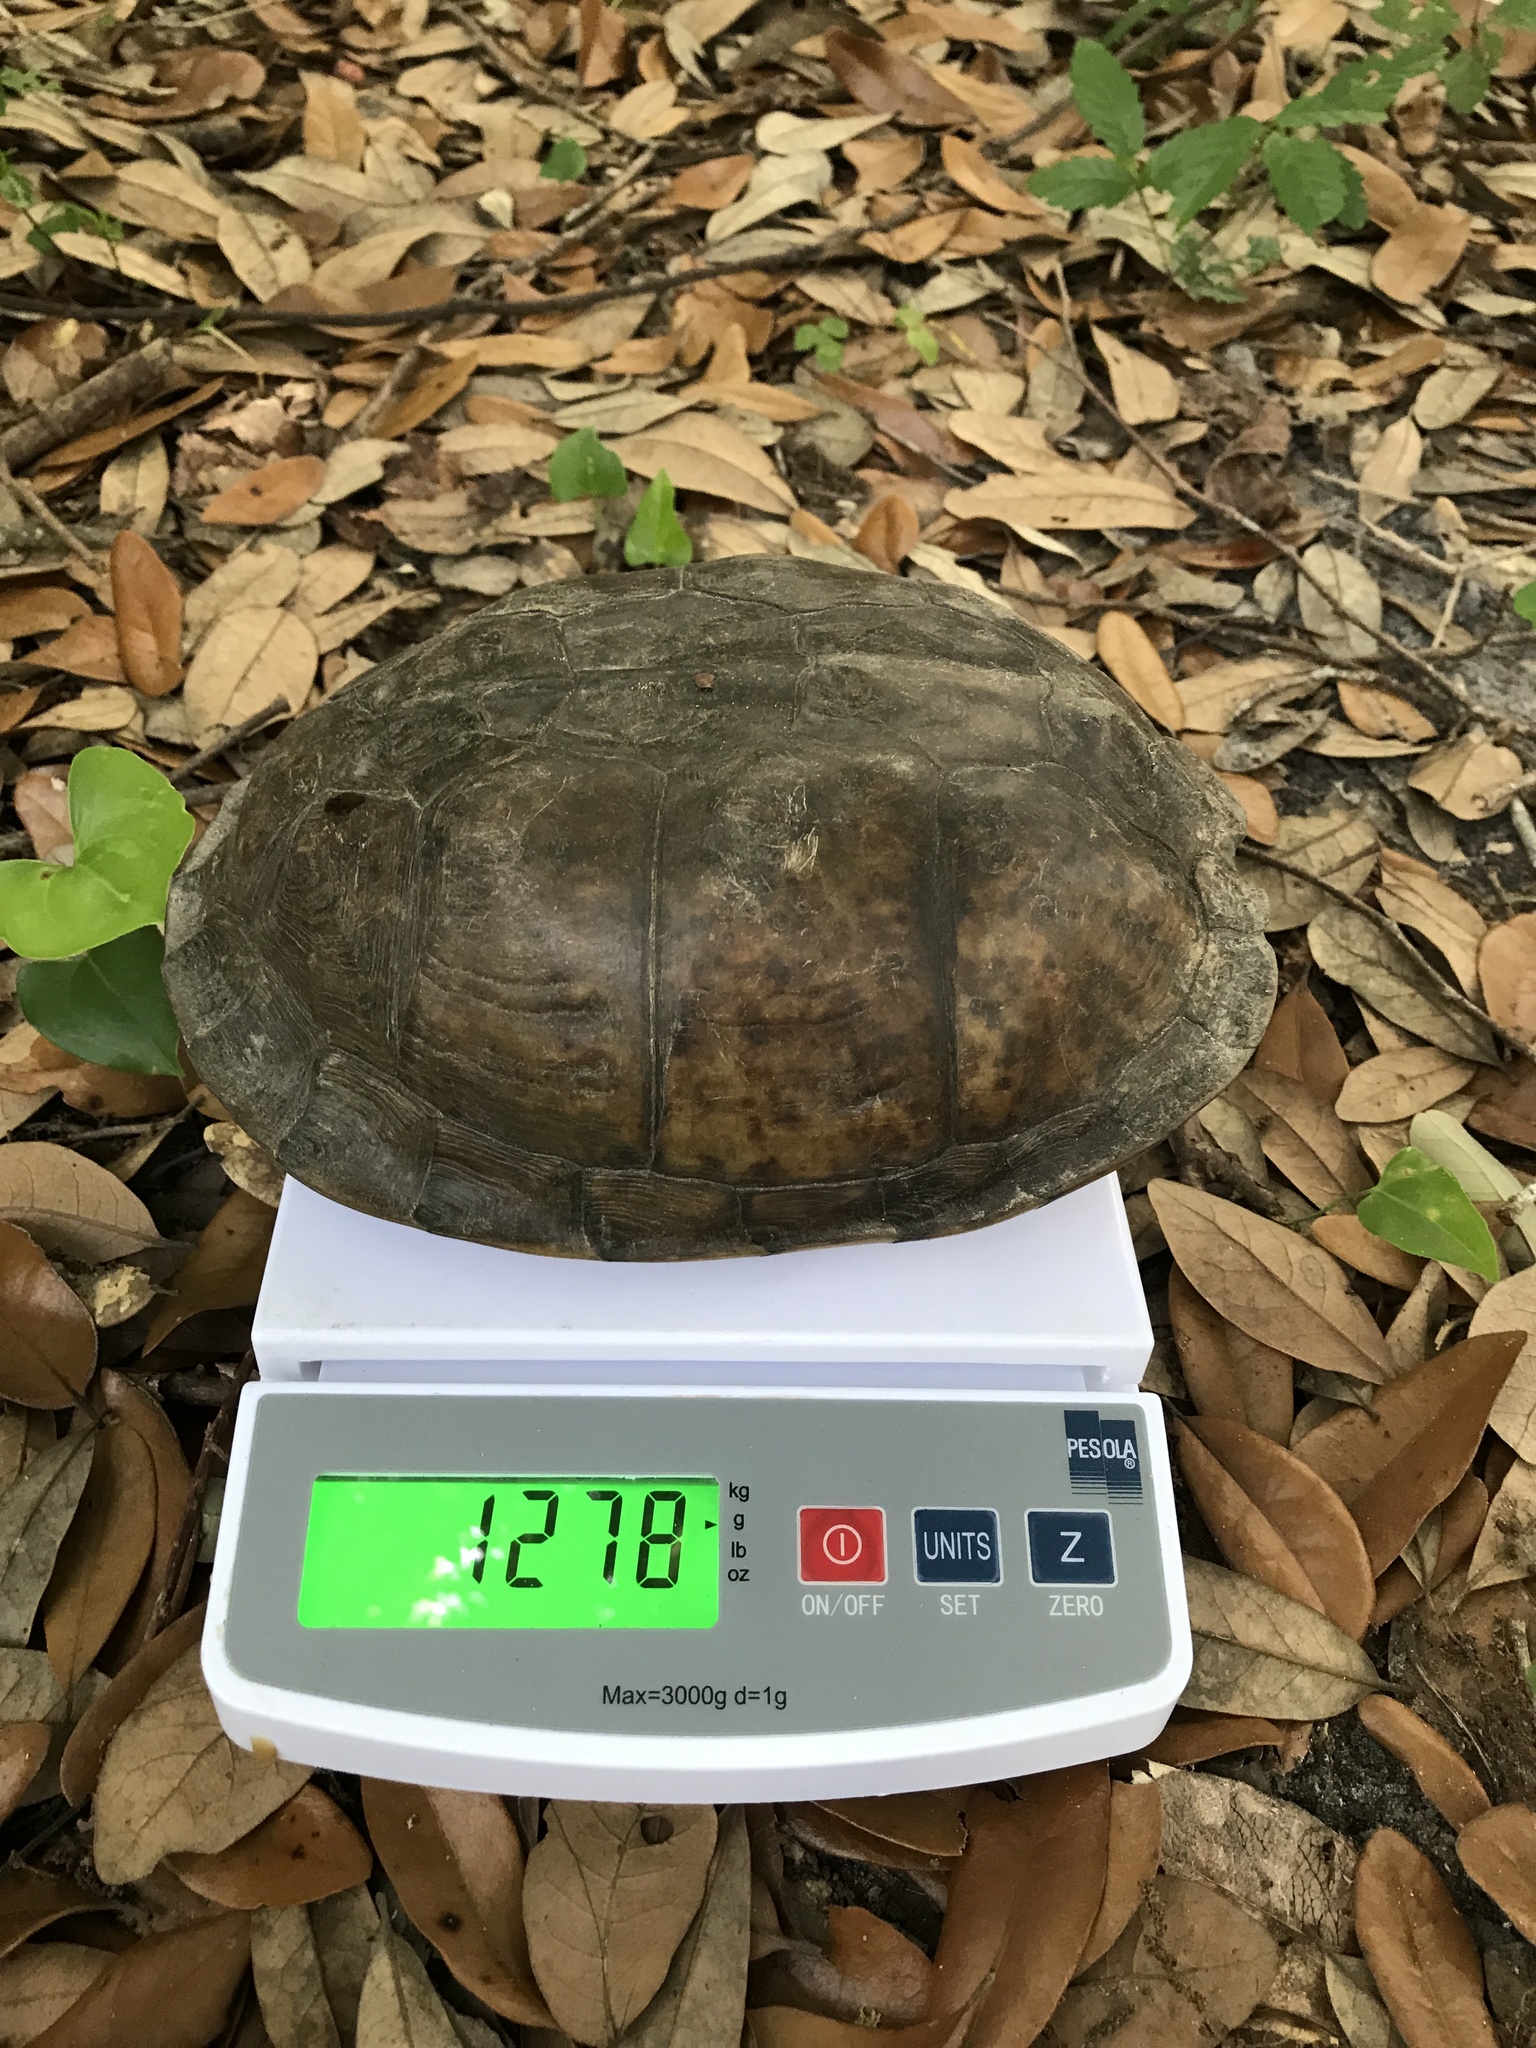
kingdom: Animalia
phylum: Chordata
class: Testudines
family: Emydidae
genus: Terrapene
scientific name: Terrapene carolina
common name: Common box turtle
